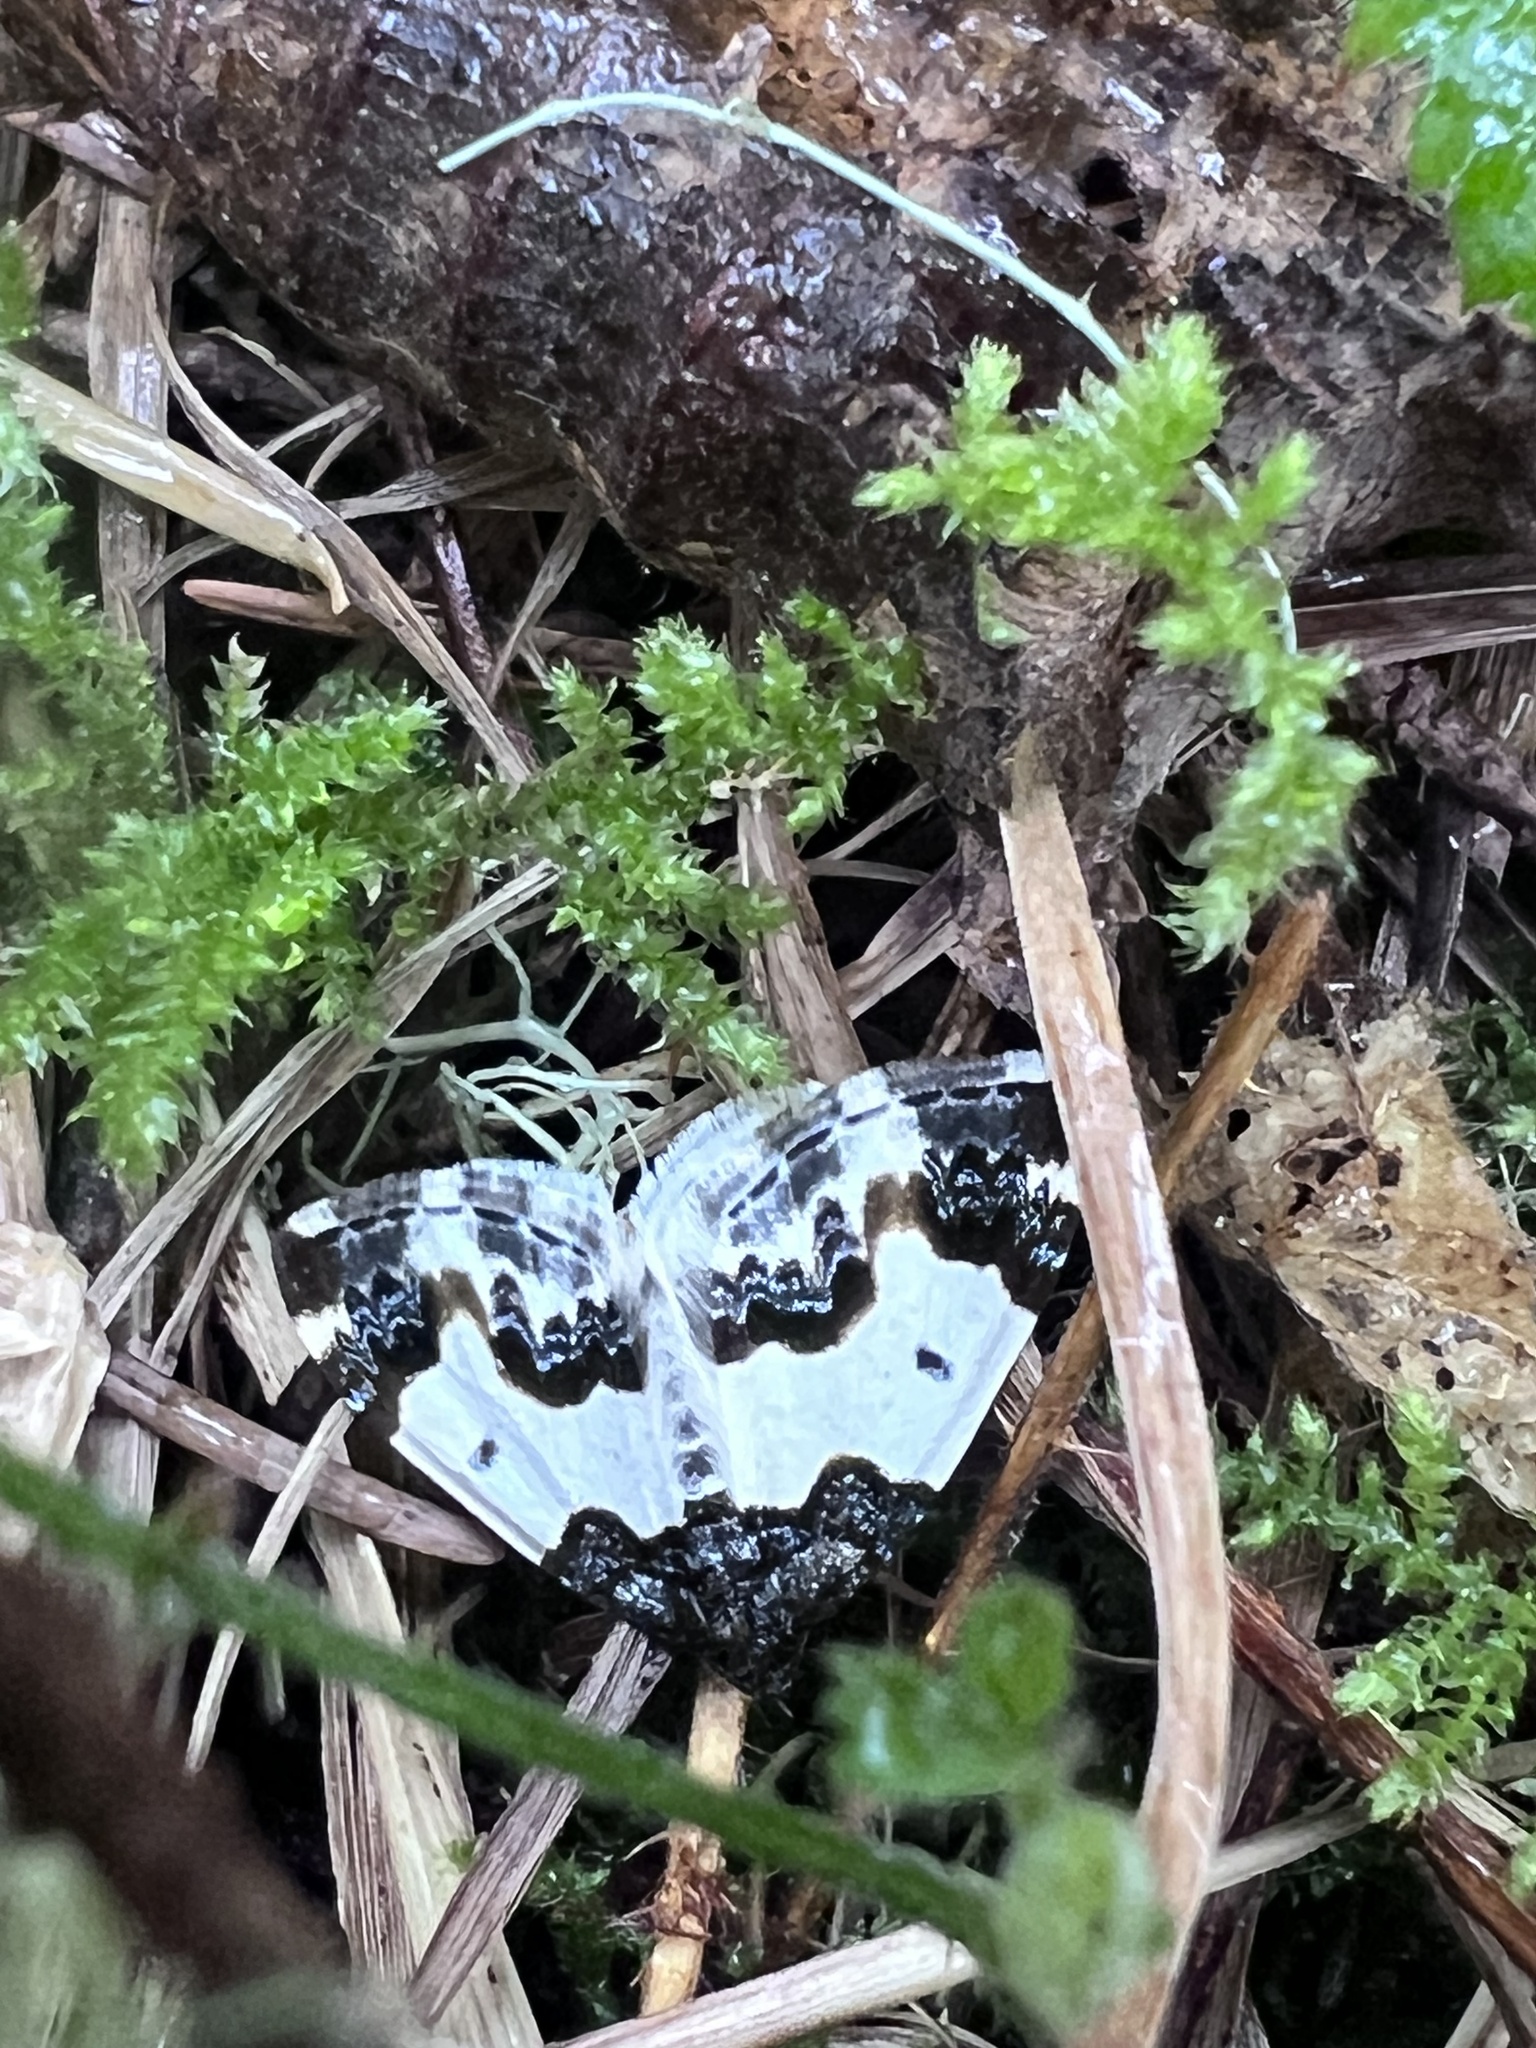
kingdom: Animalia
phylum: Arthropoda
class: Insecta
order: Lepidoptera
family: Geometridae
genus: Mesoleuca
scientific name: Mesoleuca gratulata
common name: Half-white carpet moth
